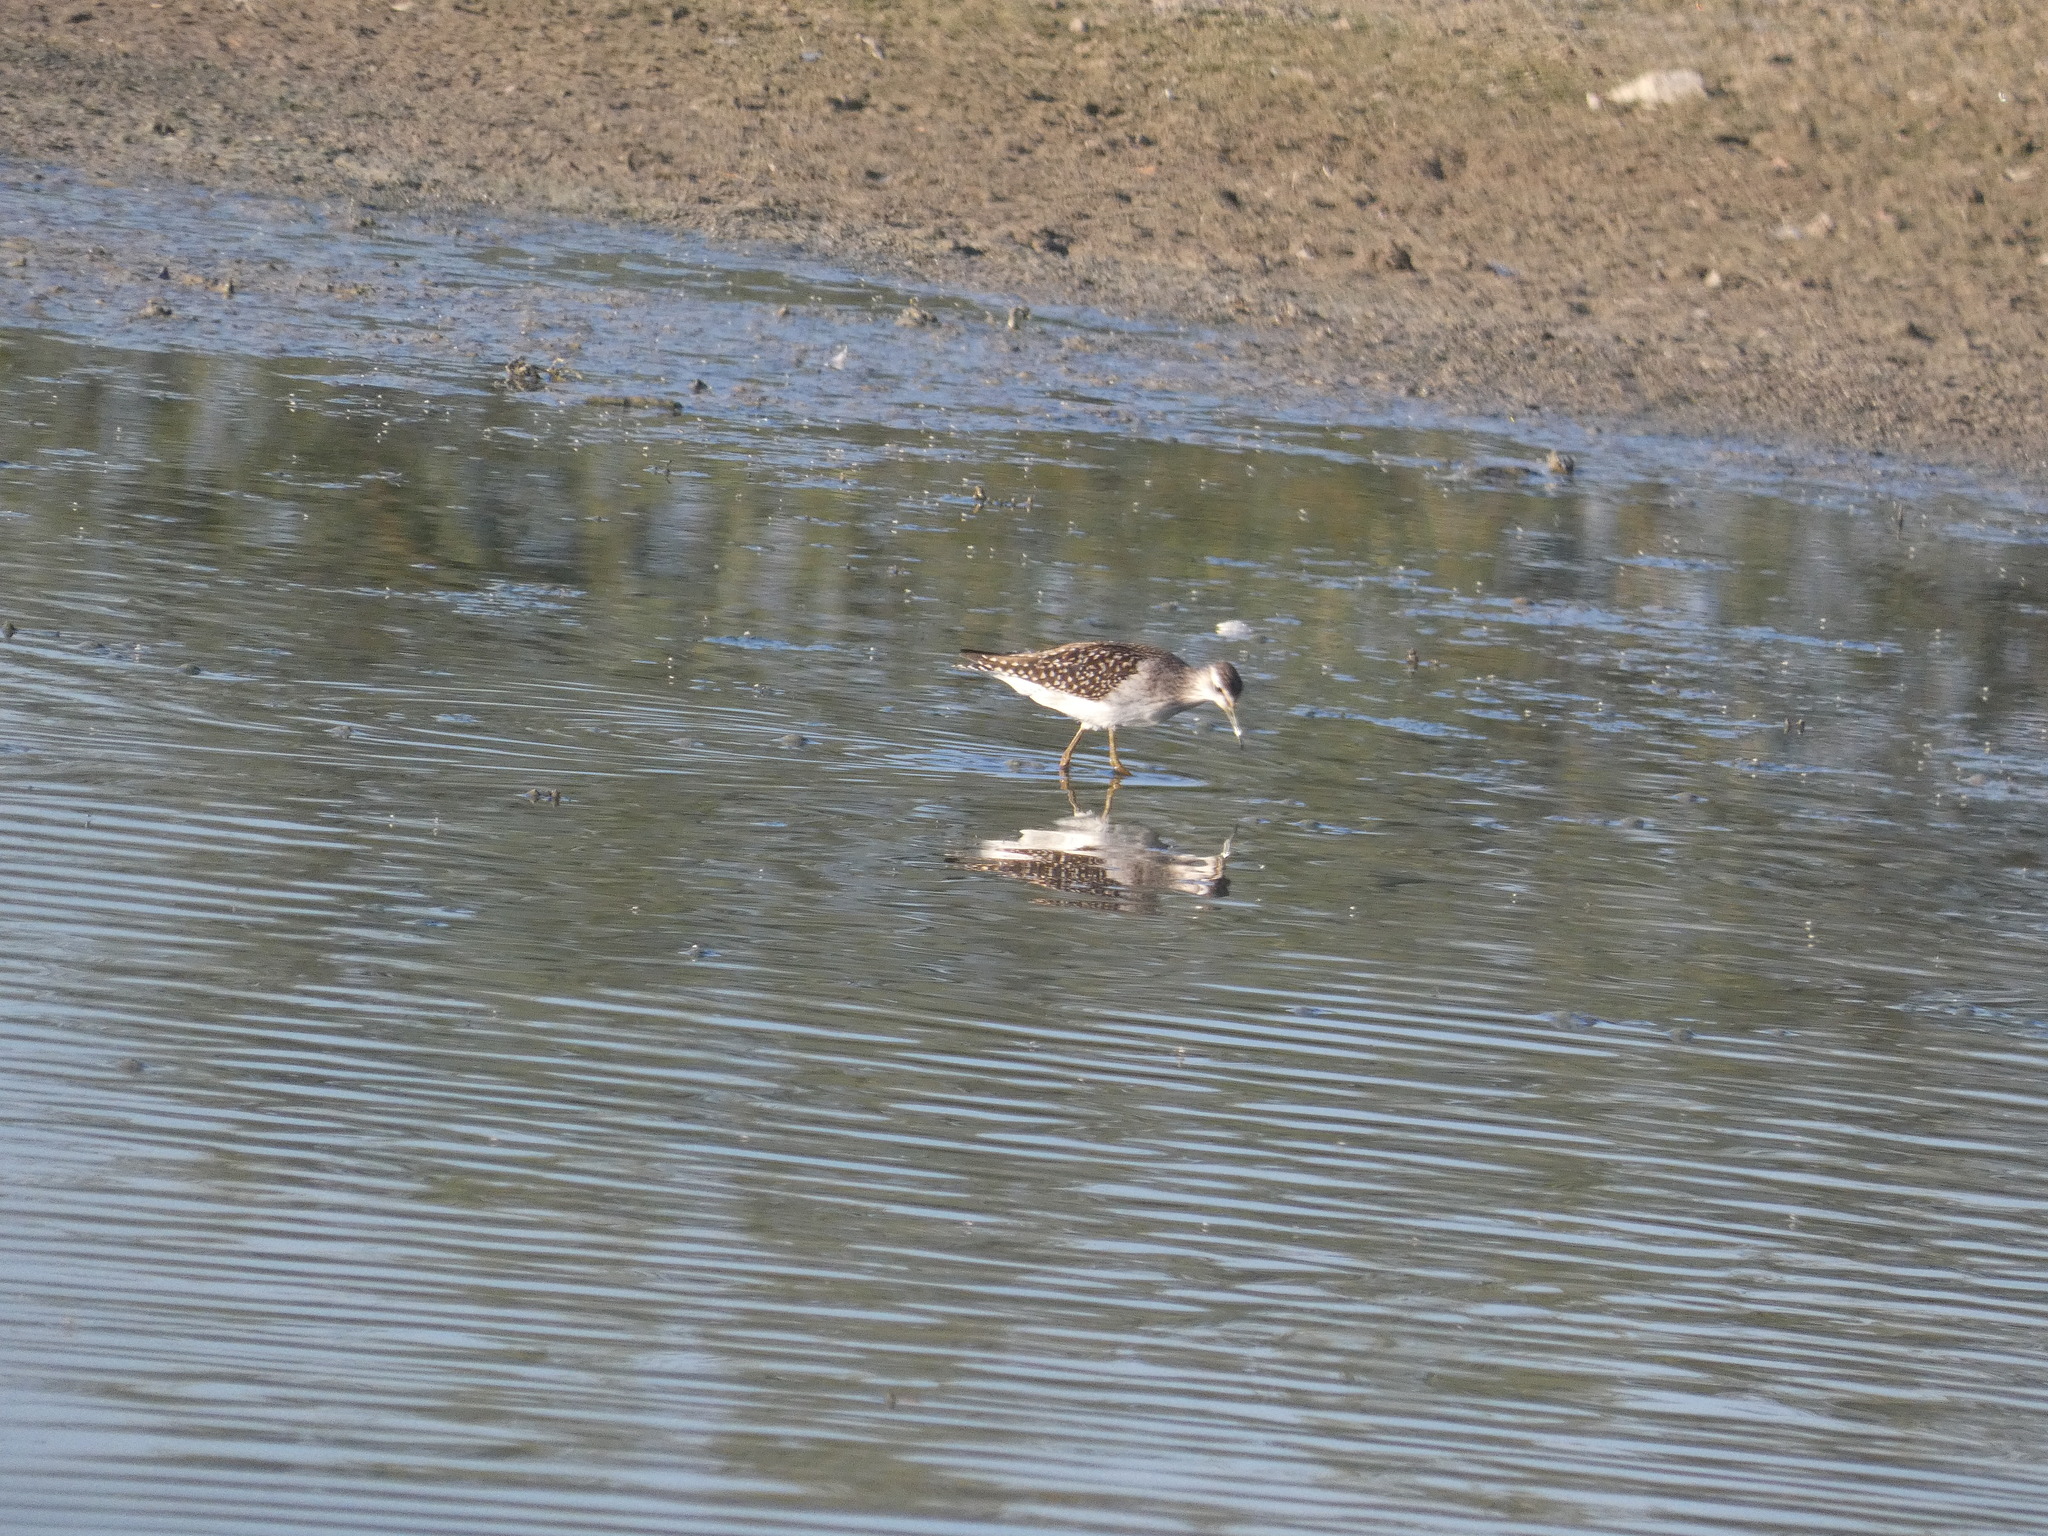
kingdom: Animalia
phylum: Chordata
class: Aves
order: Charadriiformes
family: Scolopacidae
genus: Tringa
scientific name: Tringa glareola
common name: Wood sandpiper
